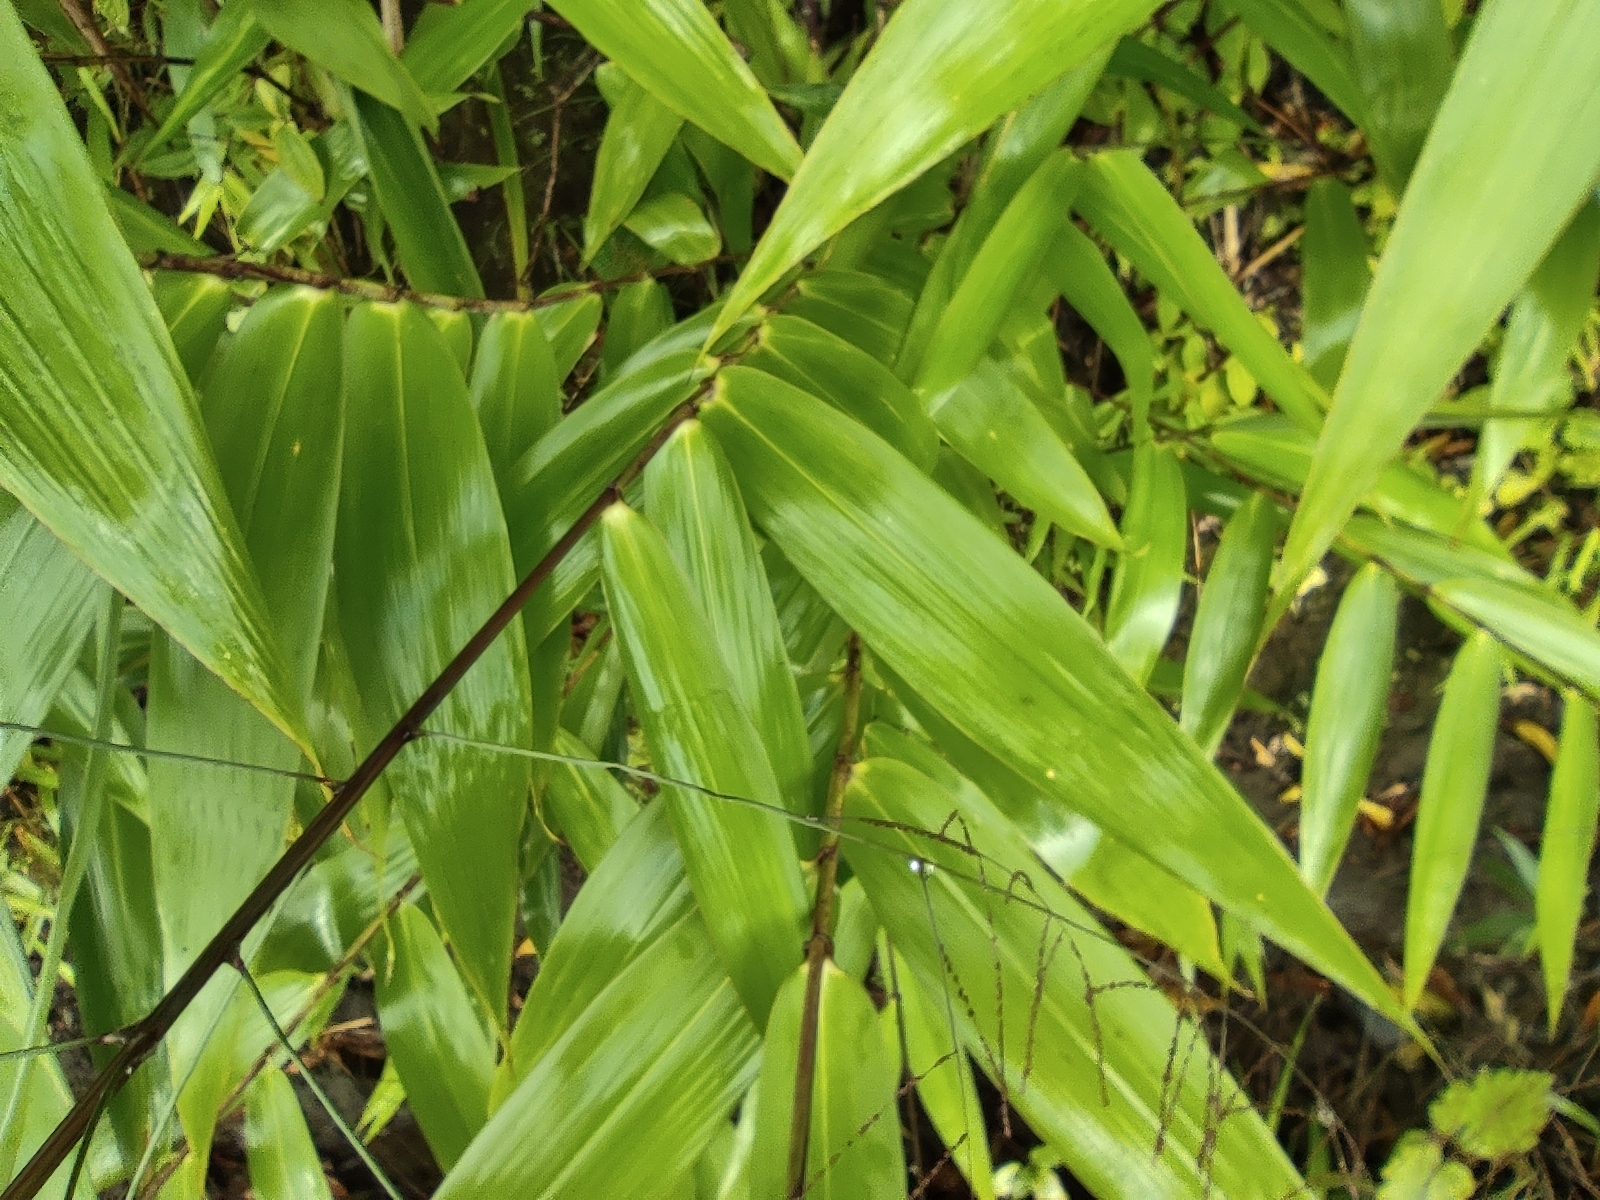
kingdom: Plantae
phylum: Tracheophyta
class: Liliopsida
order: Poales
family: Poaceae
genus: Thysanolaena
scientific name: Thysanolaena latifolia
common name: Tiger grass
